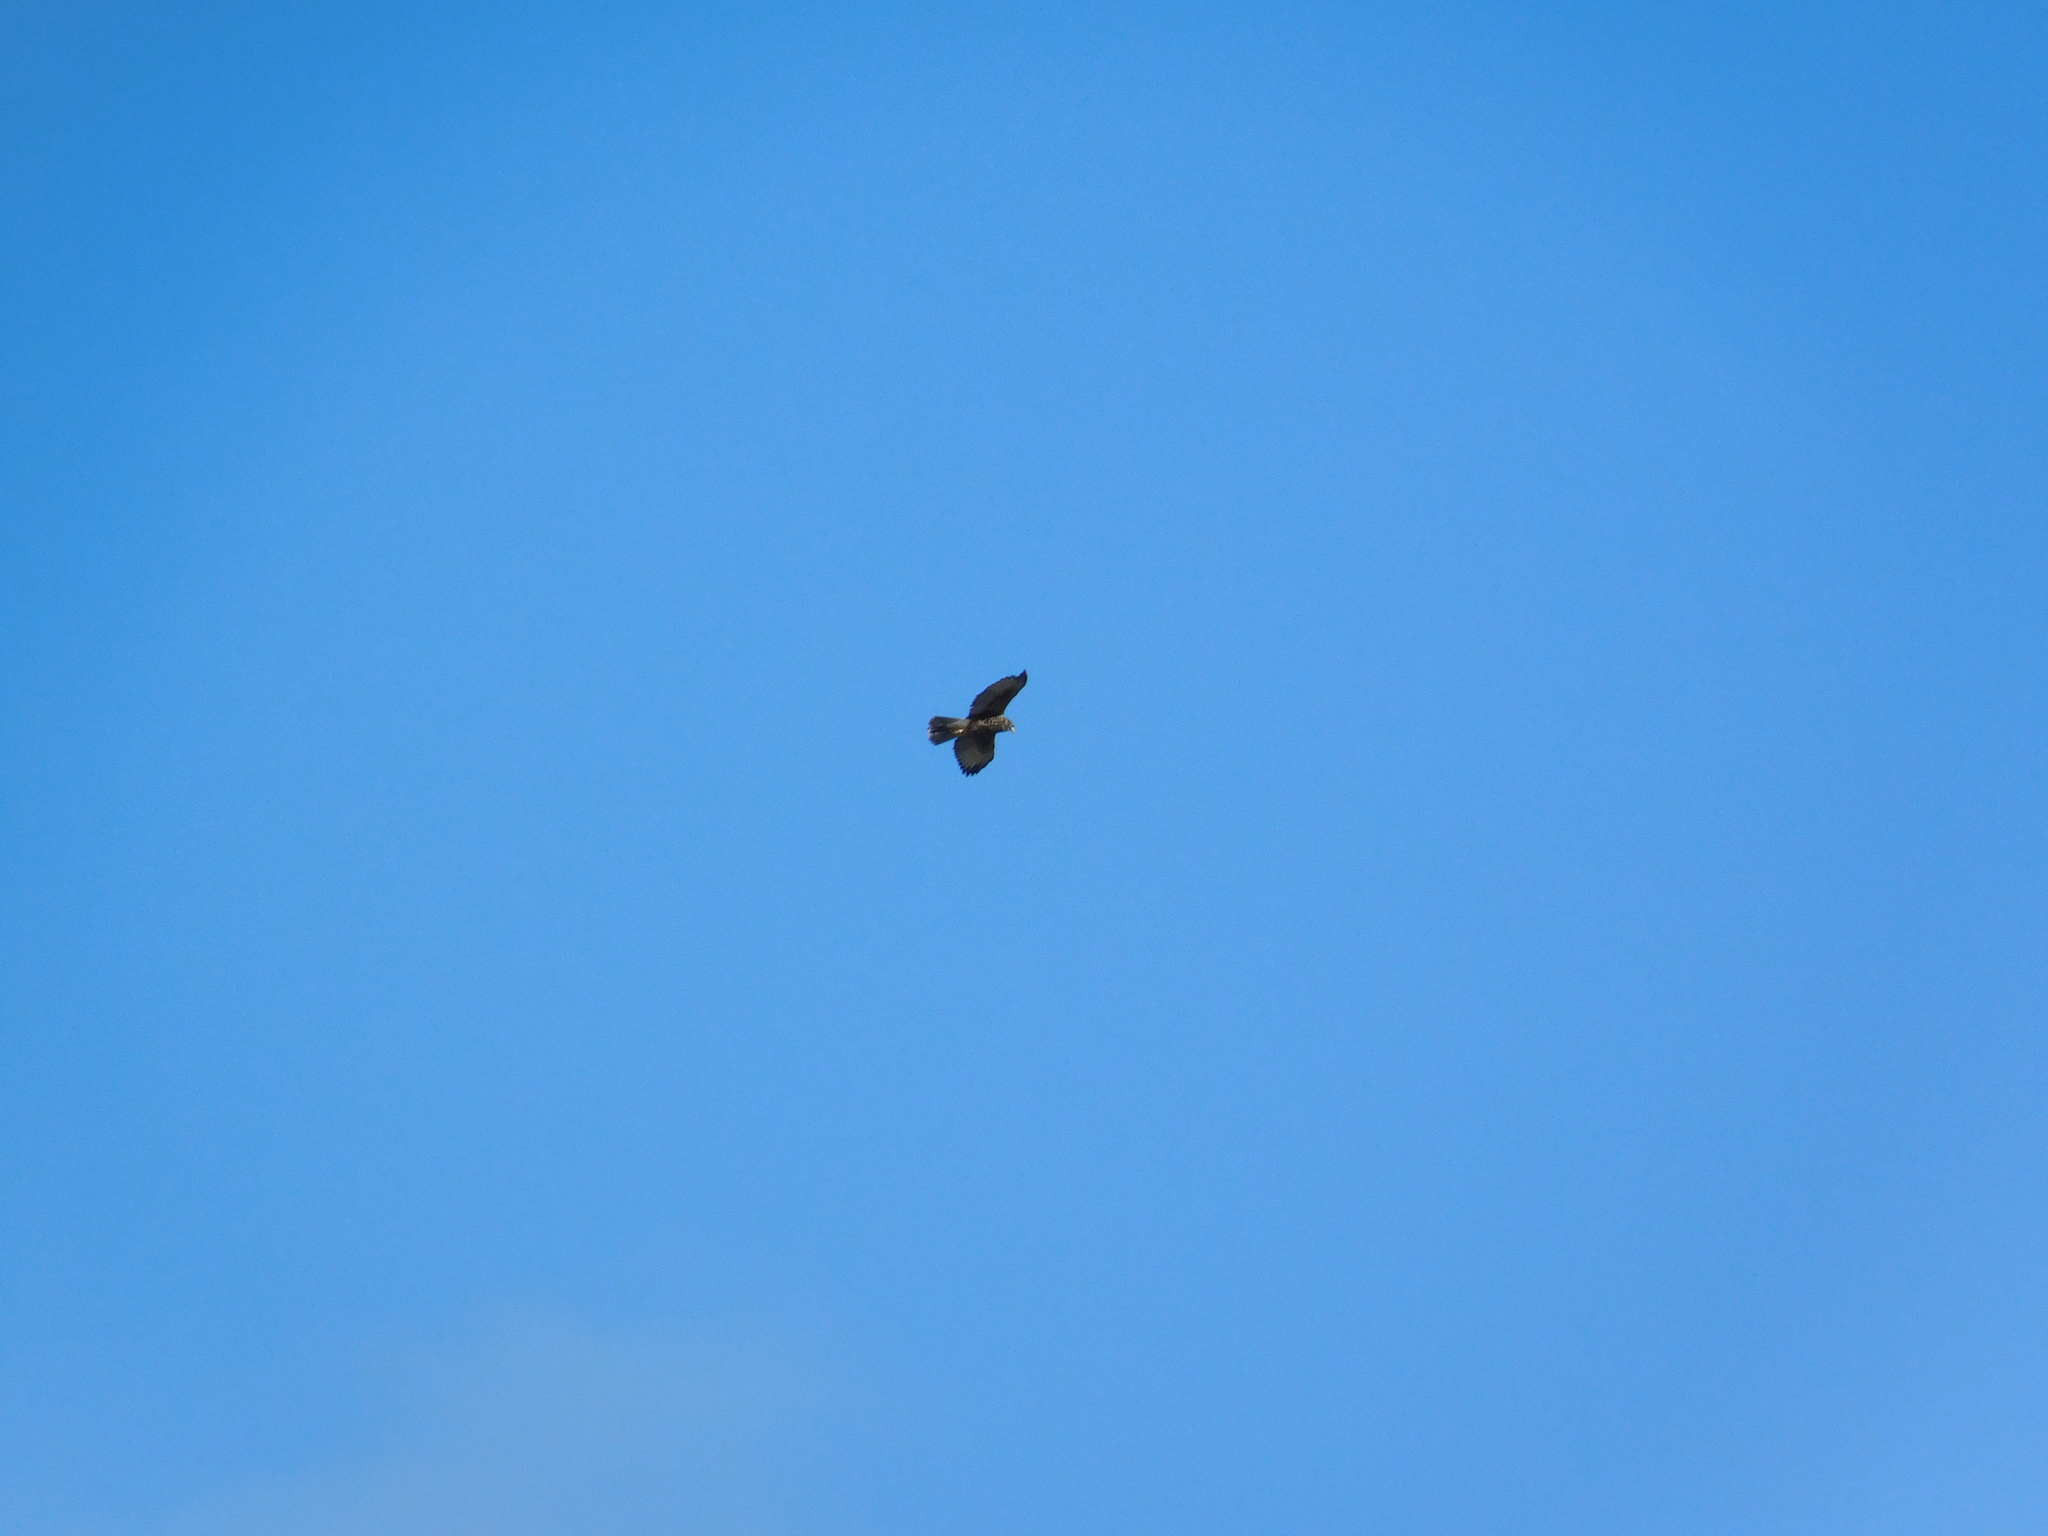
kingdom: Animalia
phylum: Chordata
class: Aves
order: Accipitriformes
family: Accipitridae
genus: Parabuteo
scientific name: Parabuteo unicinctus
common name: Harris's hawk
